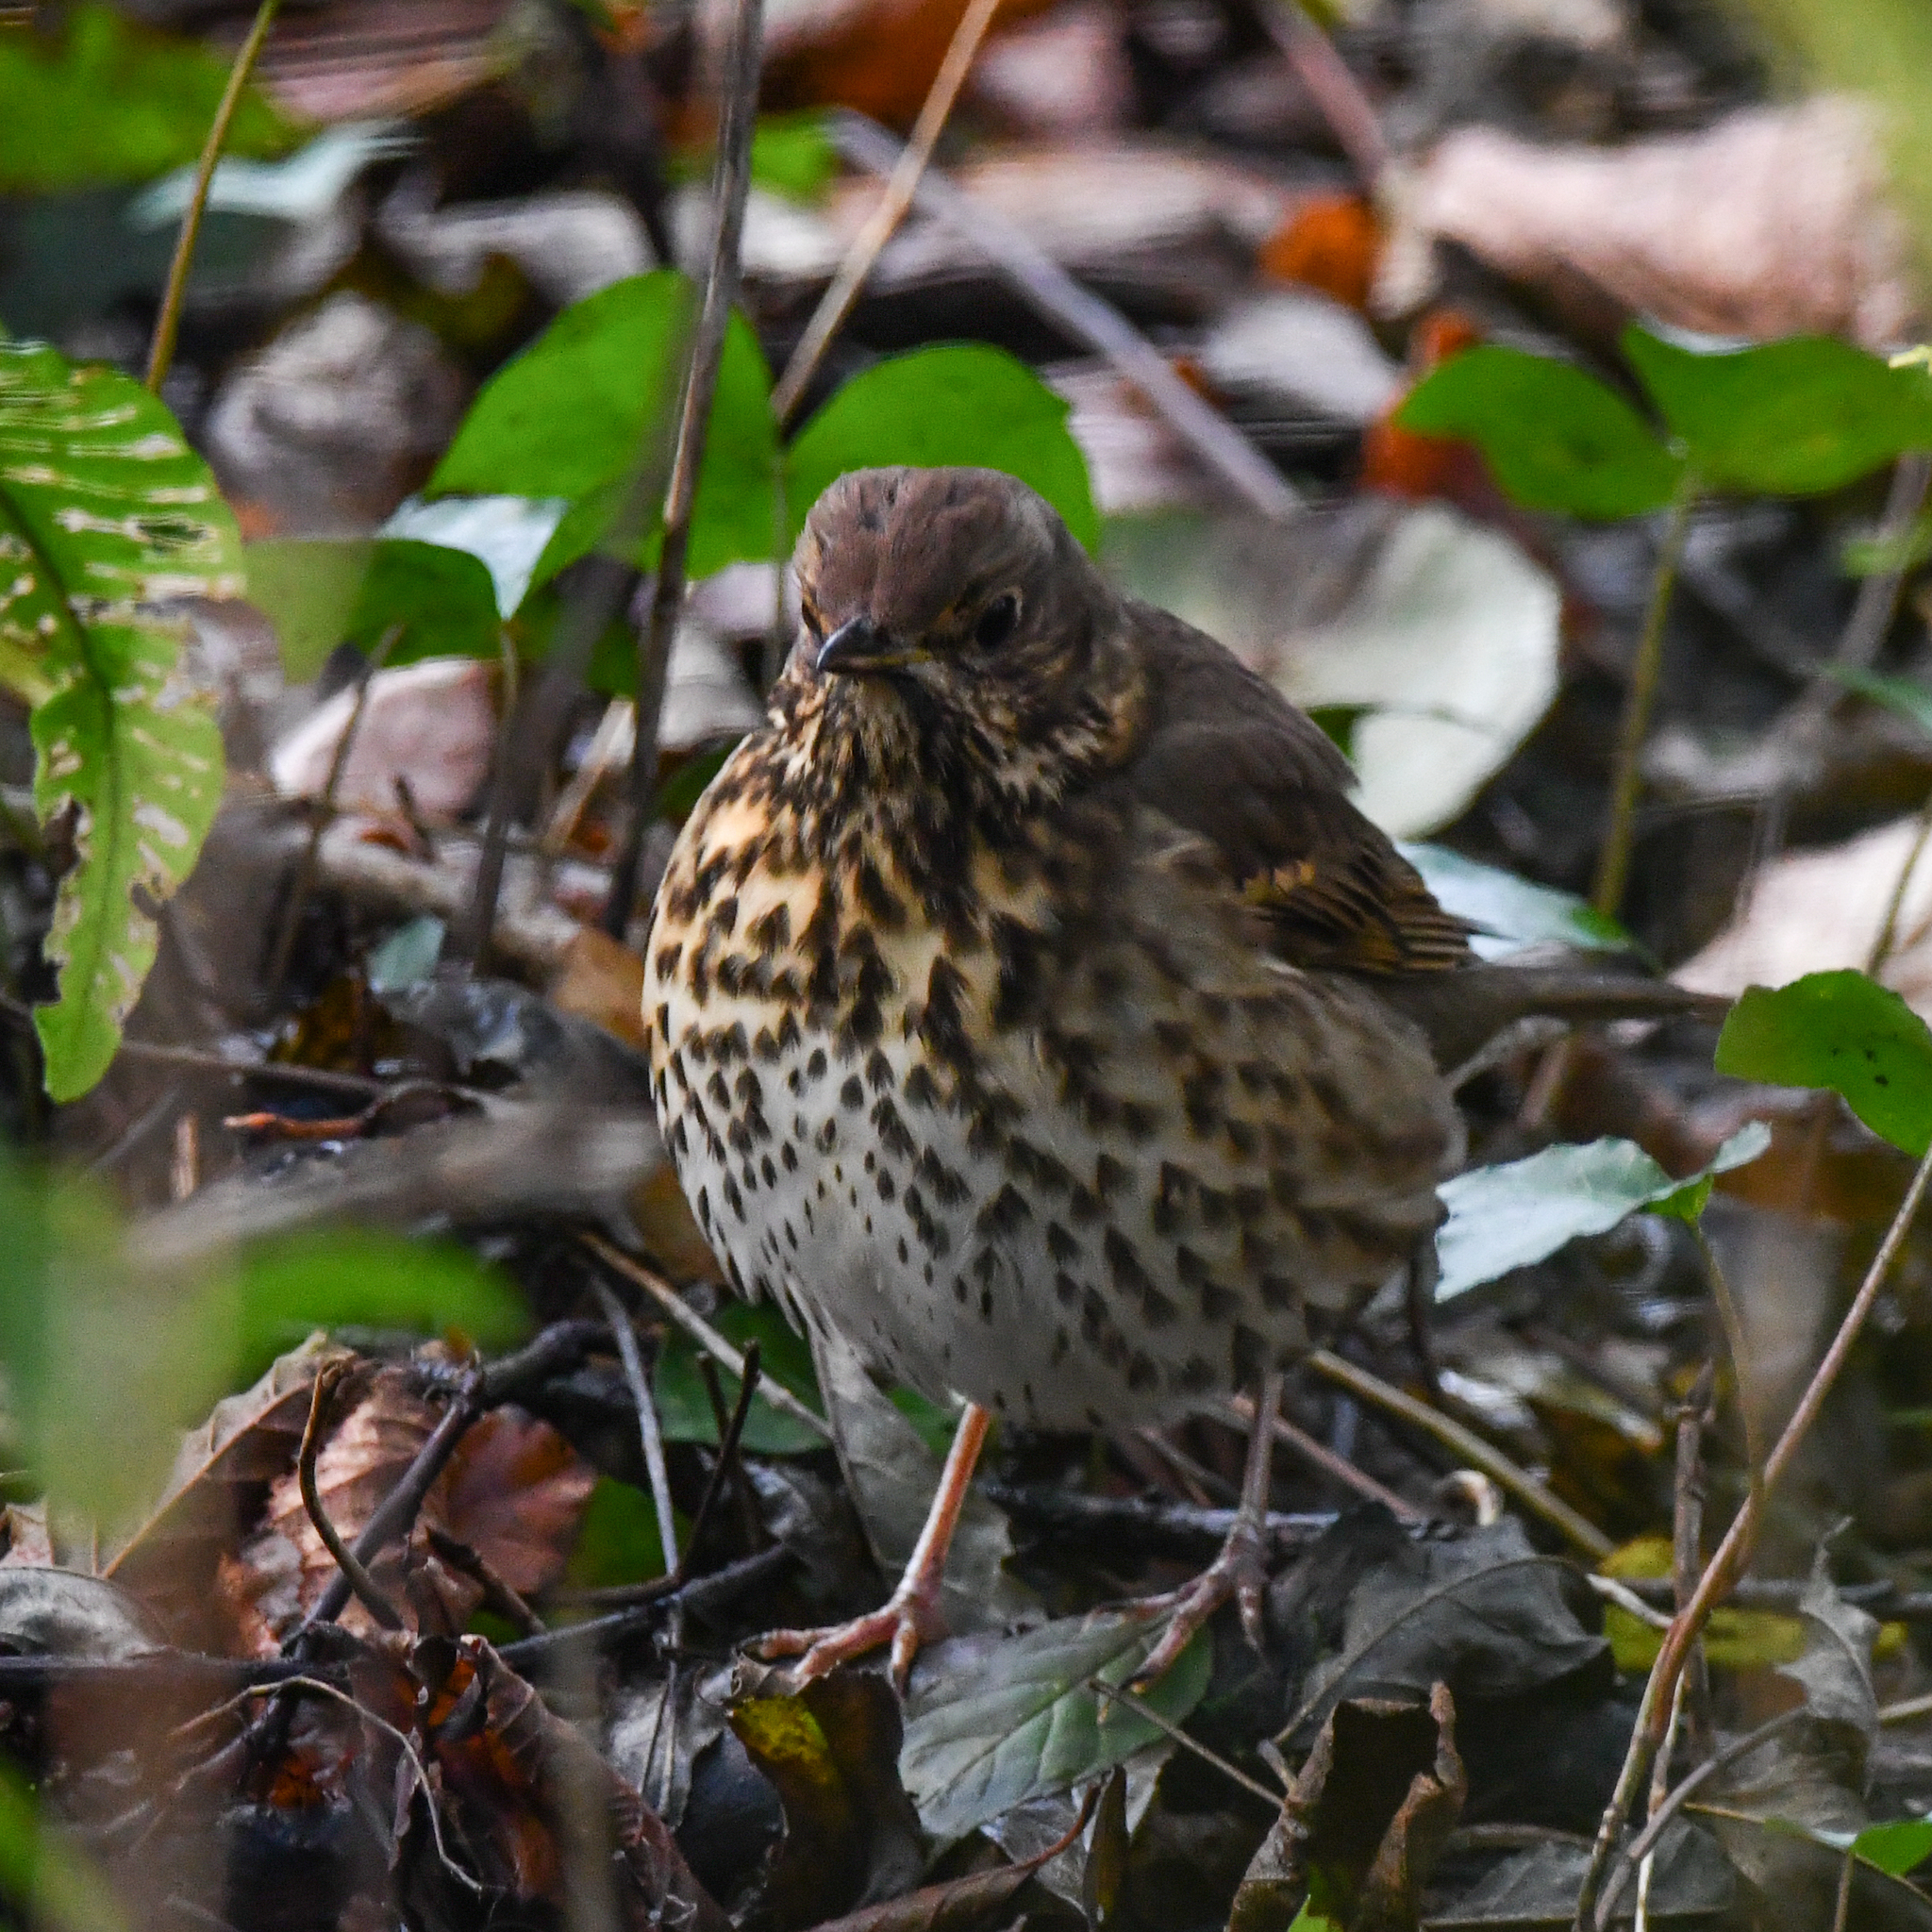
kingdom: Animalia
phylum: Chordata
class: Aves
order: Passeriformes
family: Turdidae
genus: Turdus
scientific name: Turdus philomelos
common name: Song thrush
